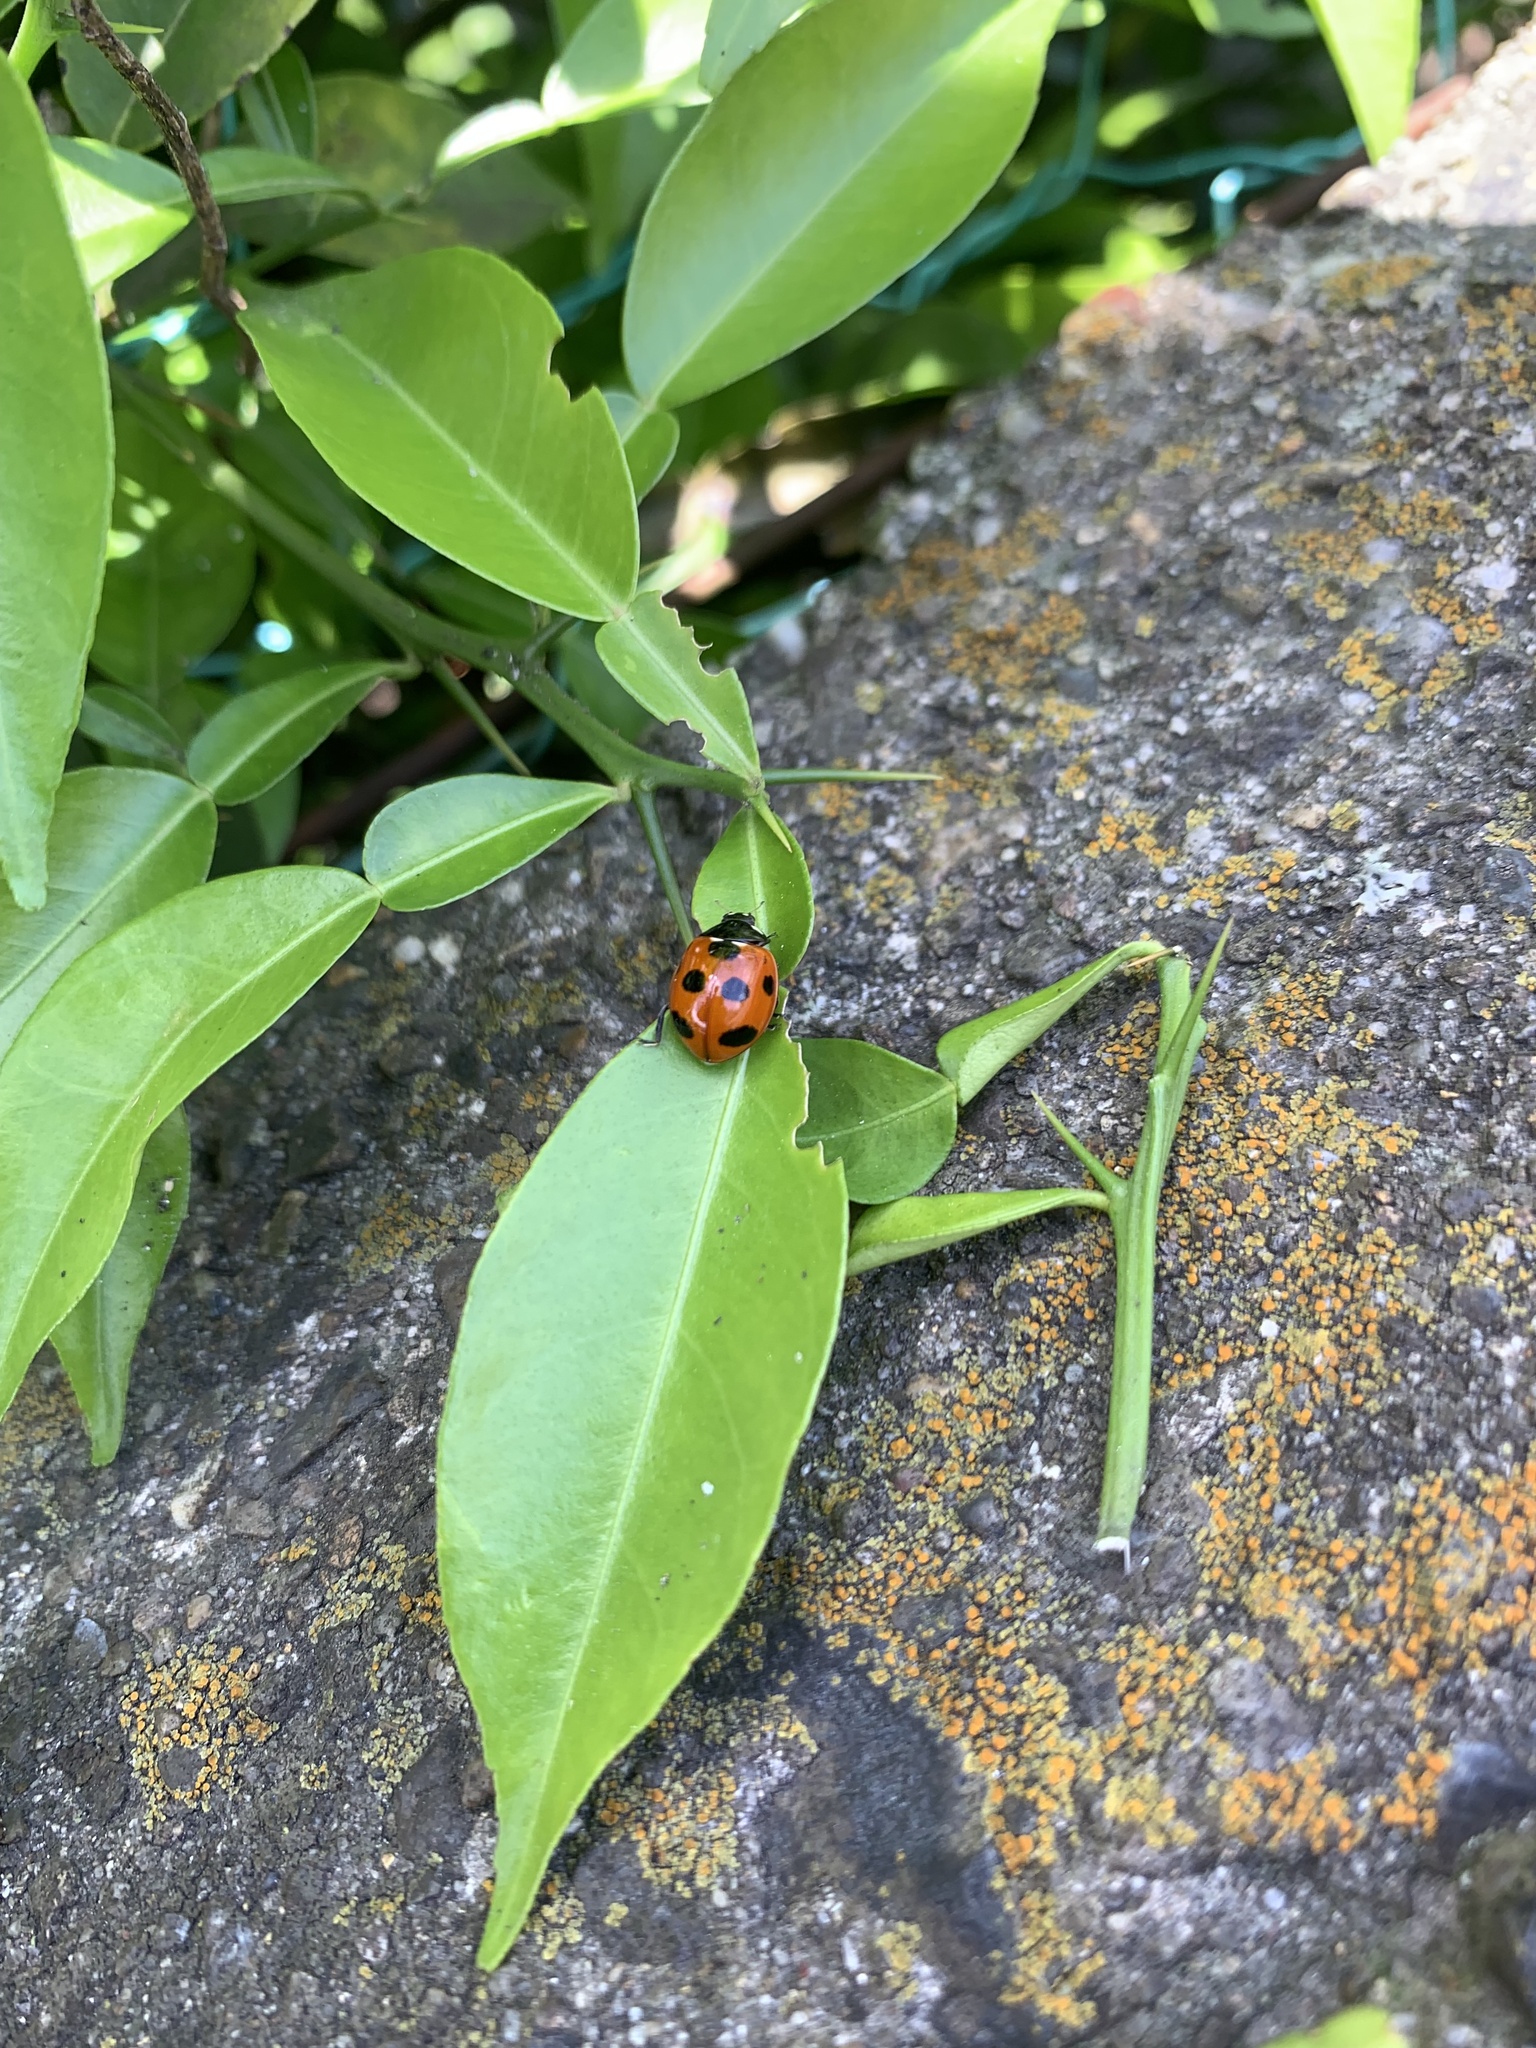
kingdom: Animalia
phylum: Arthropoda
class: Insecta
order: Coleoptera
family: Coccinellidae
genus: Coccinella
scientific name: Coccinella septempunctata
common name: Sevenspotted lady beetle
